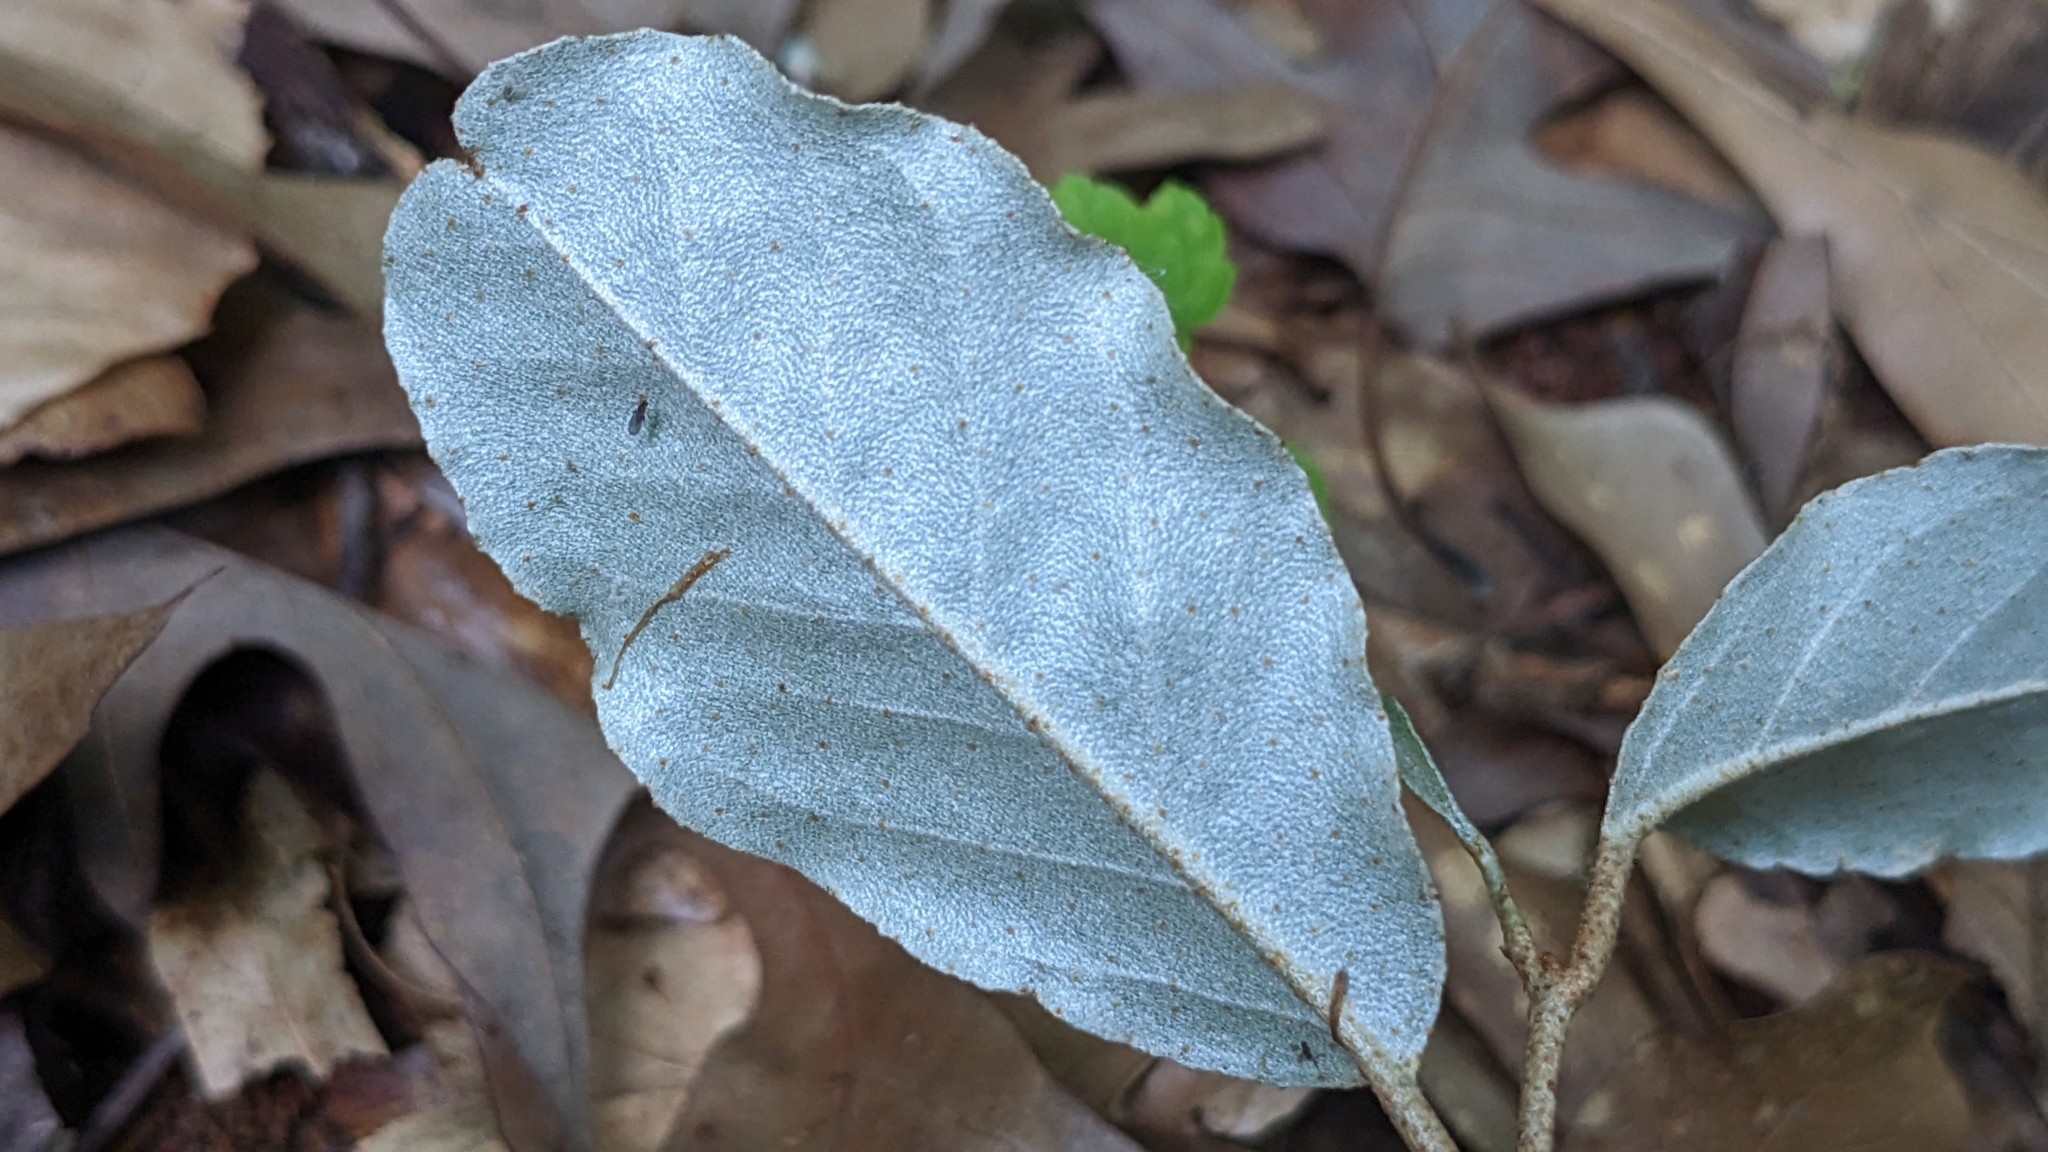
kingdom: Plantae
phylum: Tracheophyta
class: Magnoliopsida
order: Rosales
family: Elaeagnaceae
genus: Elaeagnus
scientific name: Elaeagnus pungens
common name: Spiny oleaster
